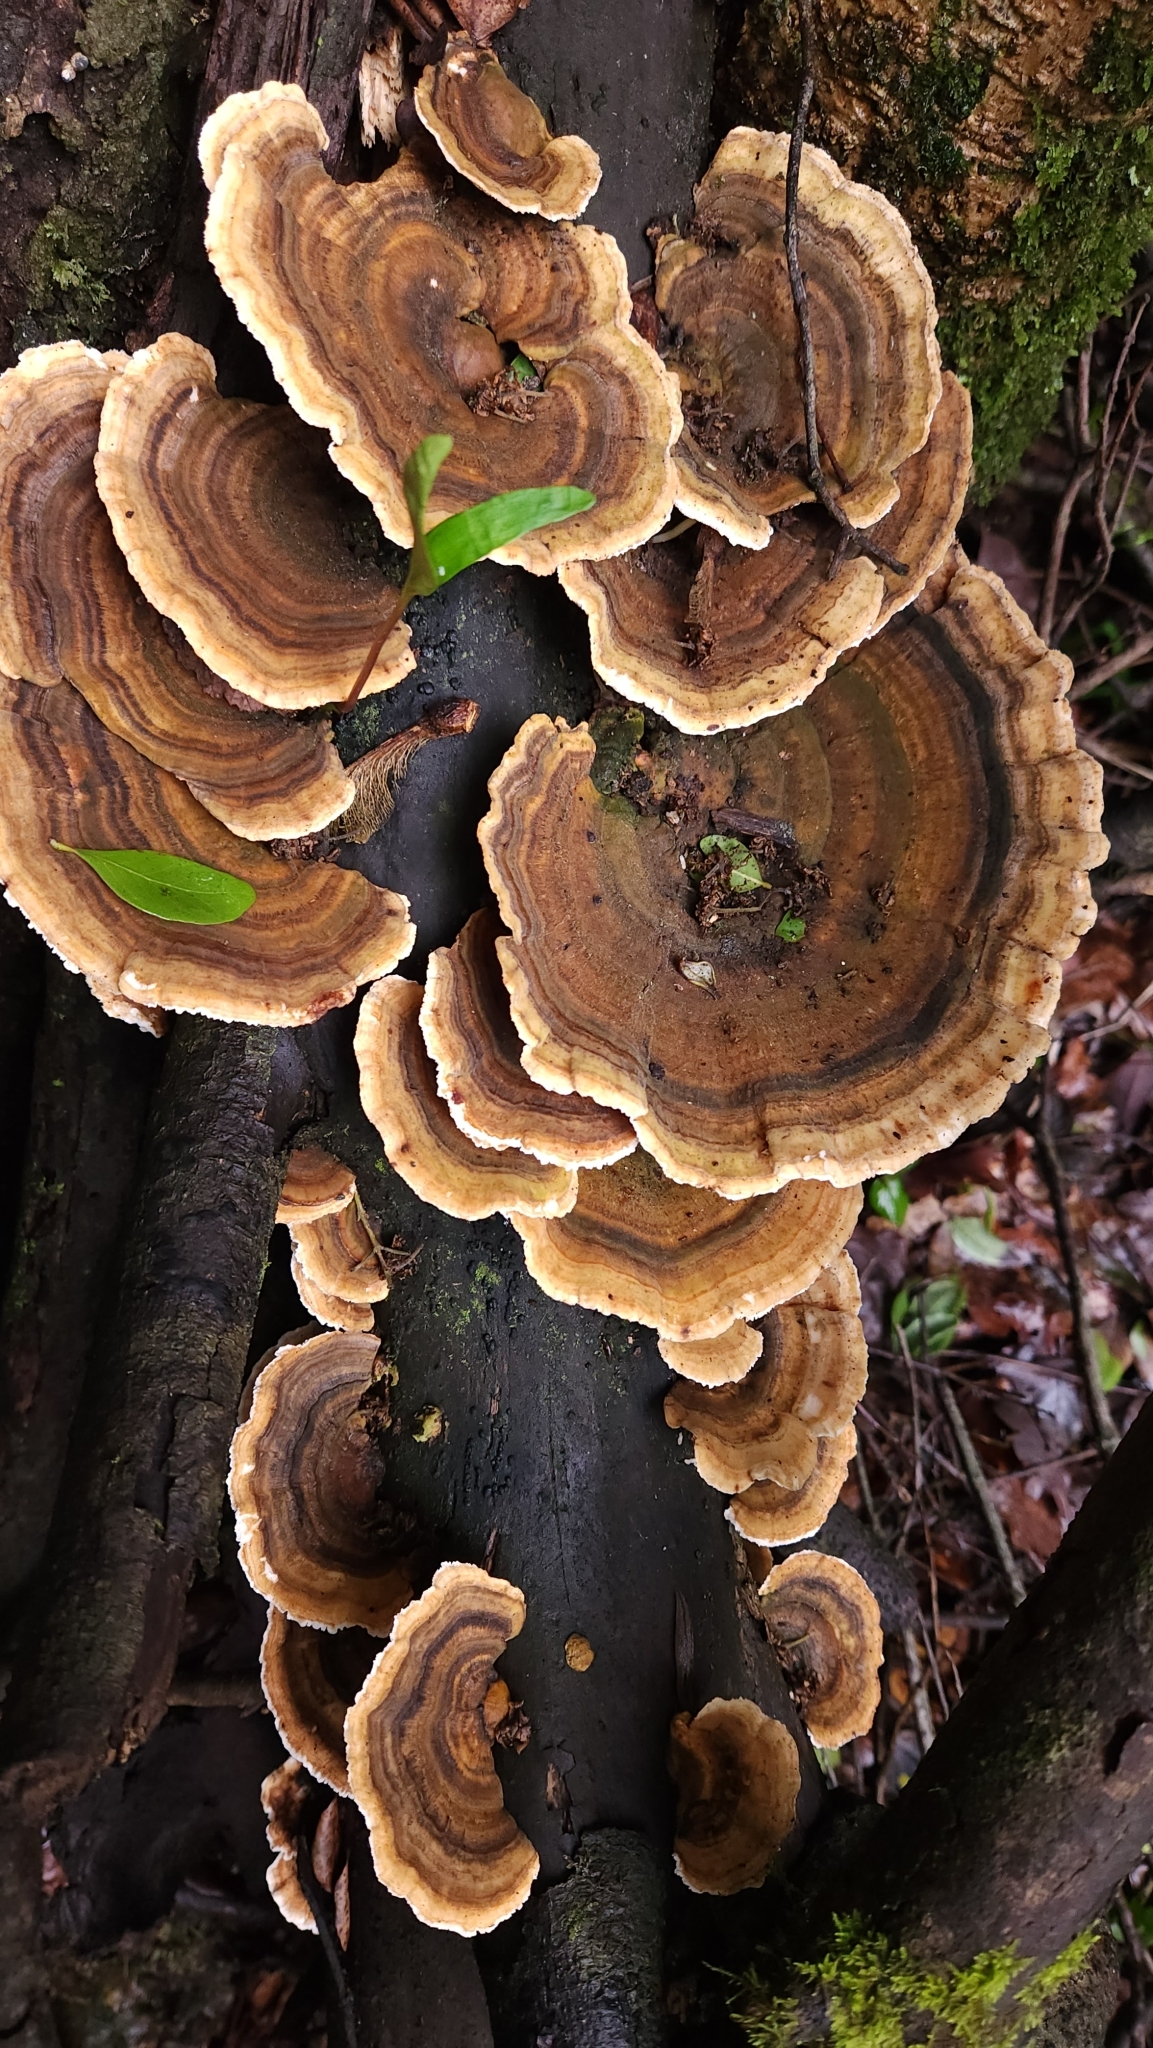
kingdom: Fungi
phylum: Basidiomycota
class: Agaricomycetes
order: Polyporales
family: Polyporaceae
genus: Trametes
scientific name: Trametes versicolor
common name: Turkeytail
